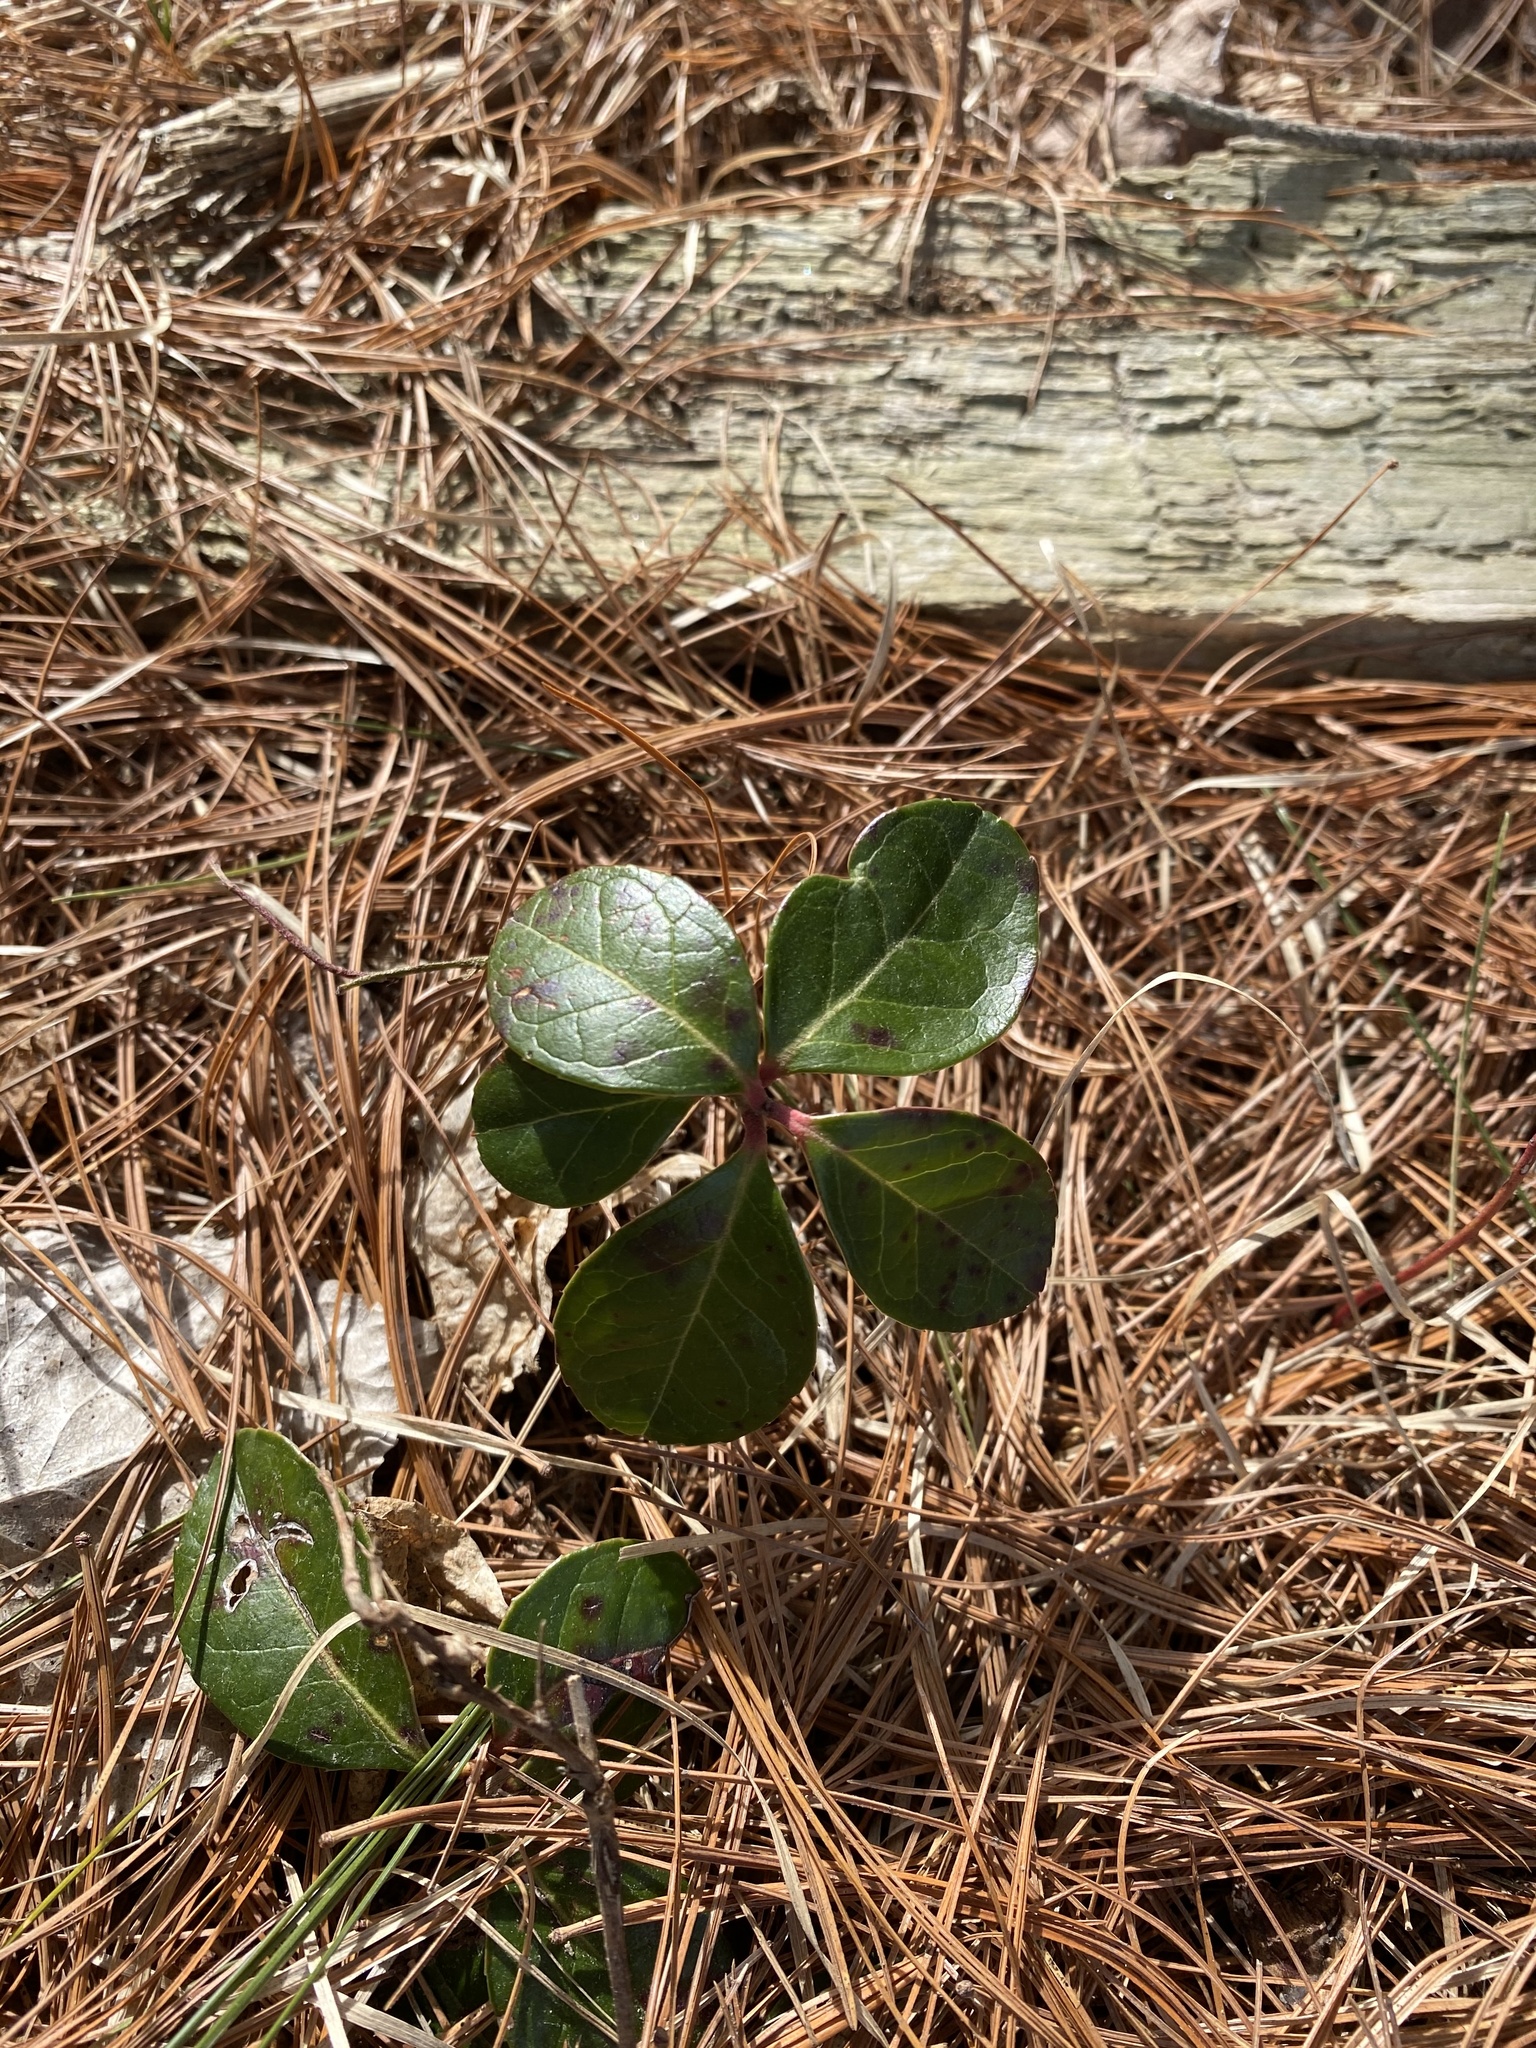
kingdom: Plantae
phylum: Tracheophyta
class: Magnoliopsida
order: Ericales
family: Ericaceae
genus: Gaultheria
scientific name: Gaultheria procumbens
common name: Checkerberry
